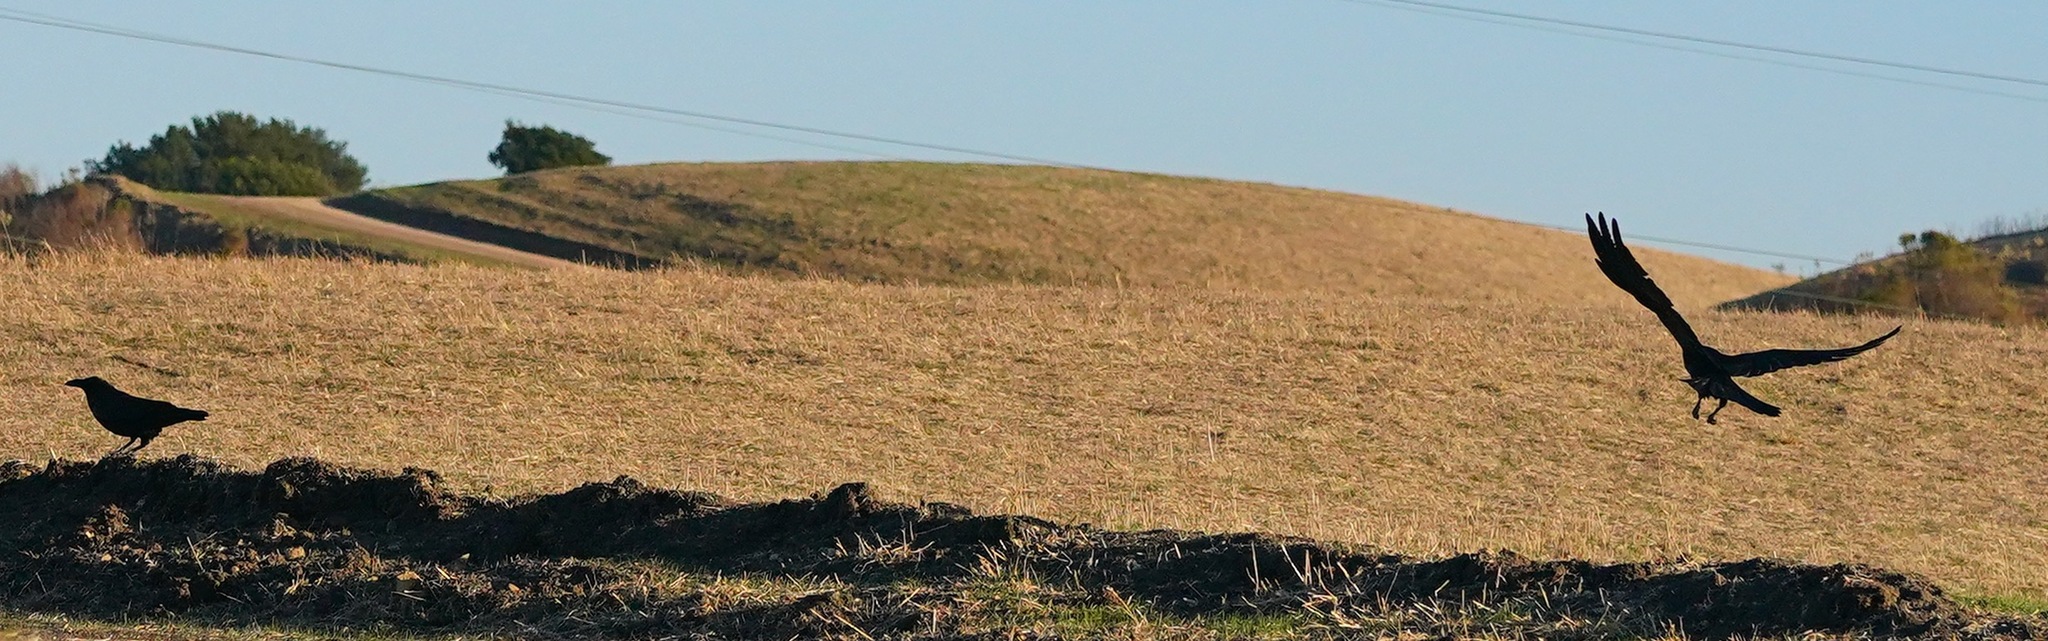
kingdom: Animalia
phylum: Chordata
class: Aves
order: Passeriformes
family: Corvidae
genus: Corvus
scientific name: Corvus corax
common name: Common raven
